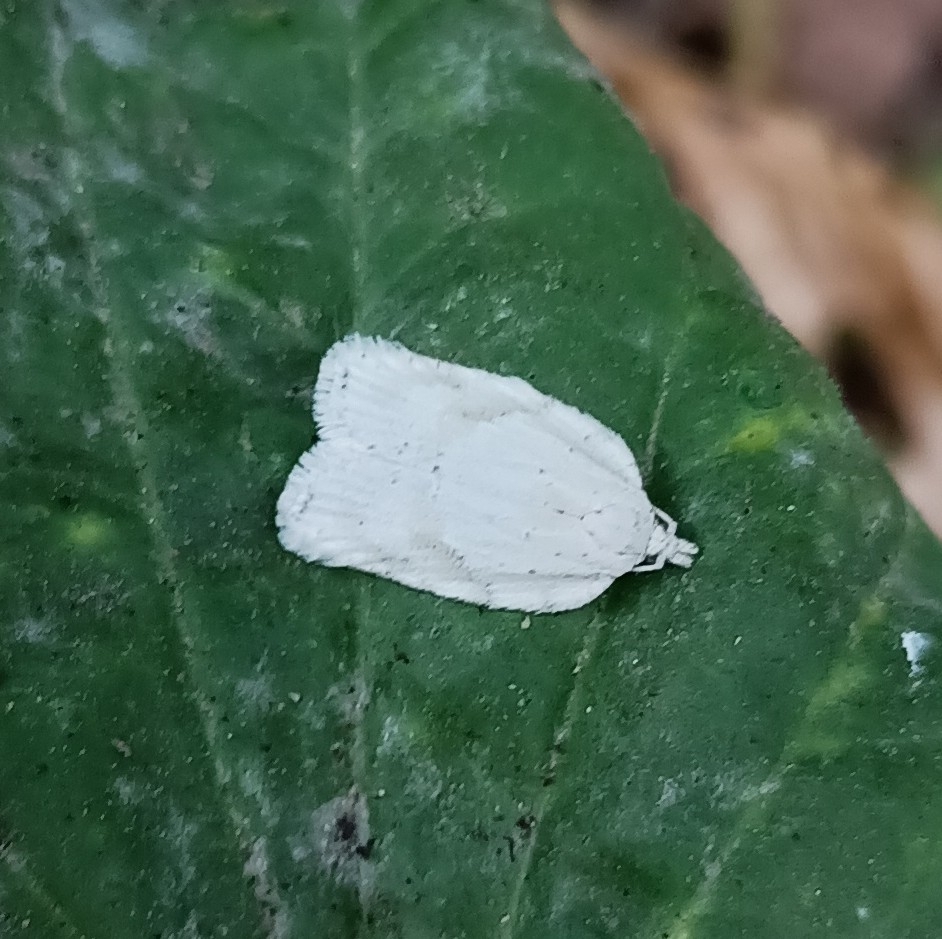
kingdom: Animalia
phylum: Arthropoda
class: Insecta
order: Lepidoptera
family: Tortricidae
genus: Acleris
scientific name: Acleris logiana
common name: Grey birch button
